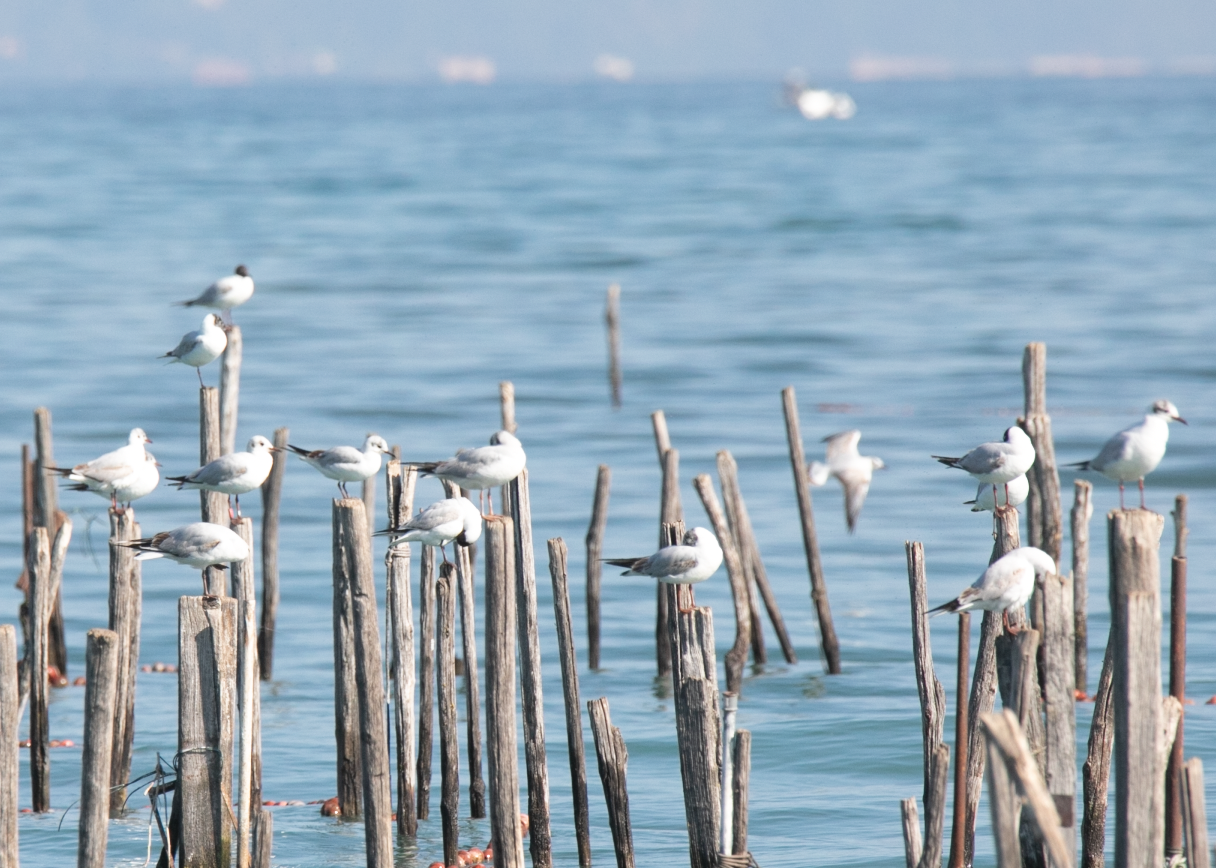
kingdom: Animalia
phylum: Chordata
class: Aves
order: Charadriiformes
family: Laridae
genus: Chroicocephalus
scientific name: Chroicocephalus ridibundus
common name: Black-headed gull
